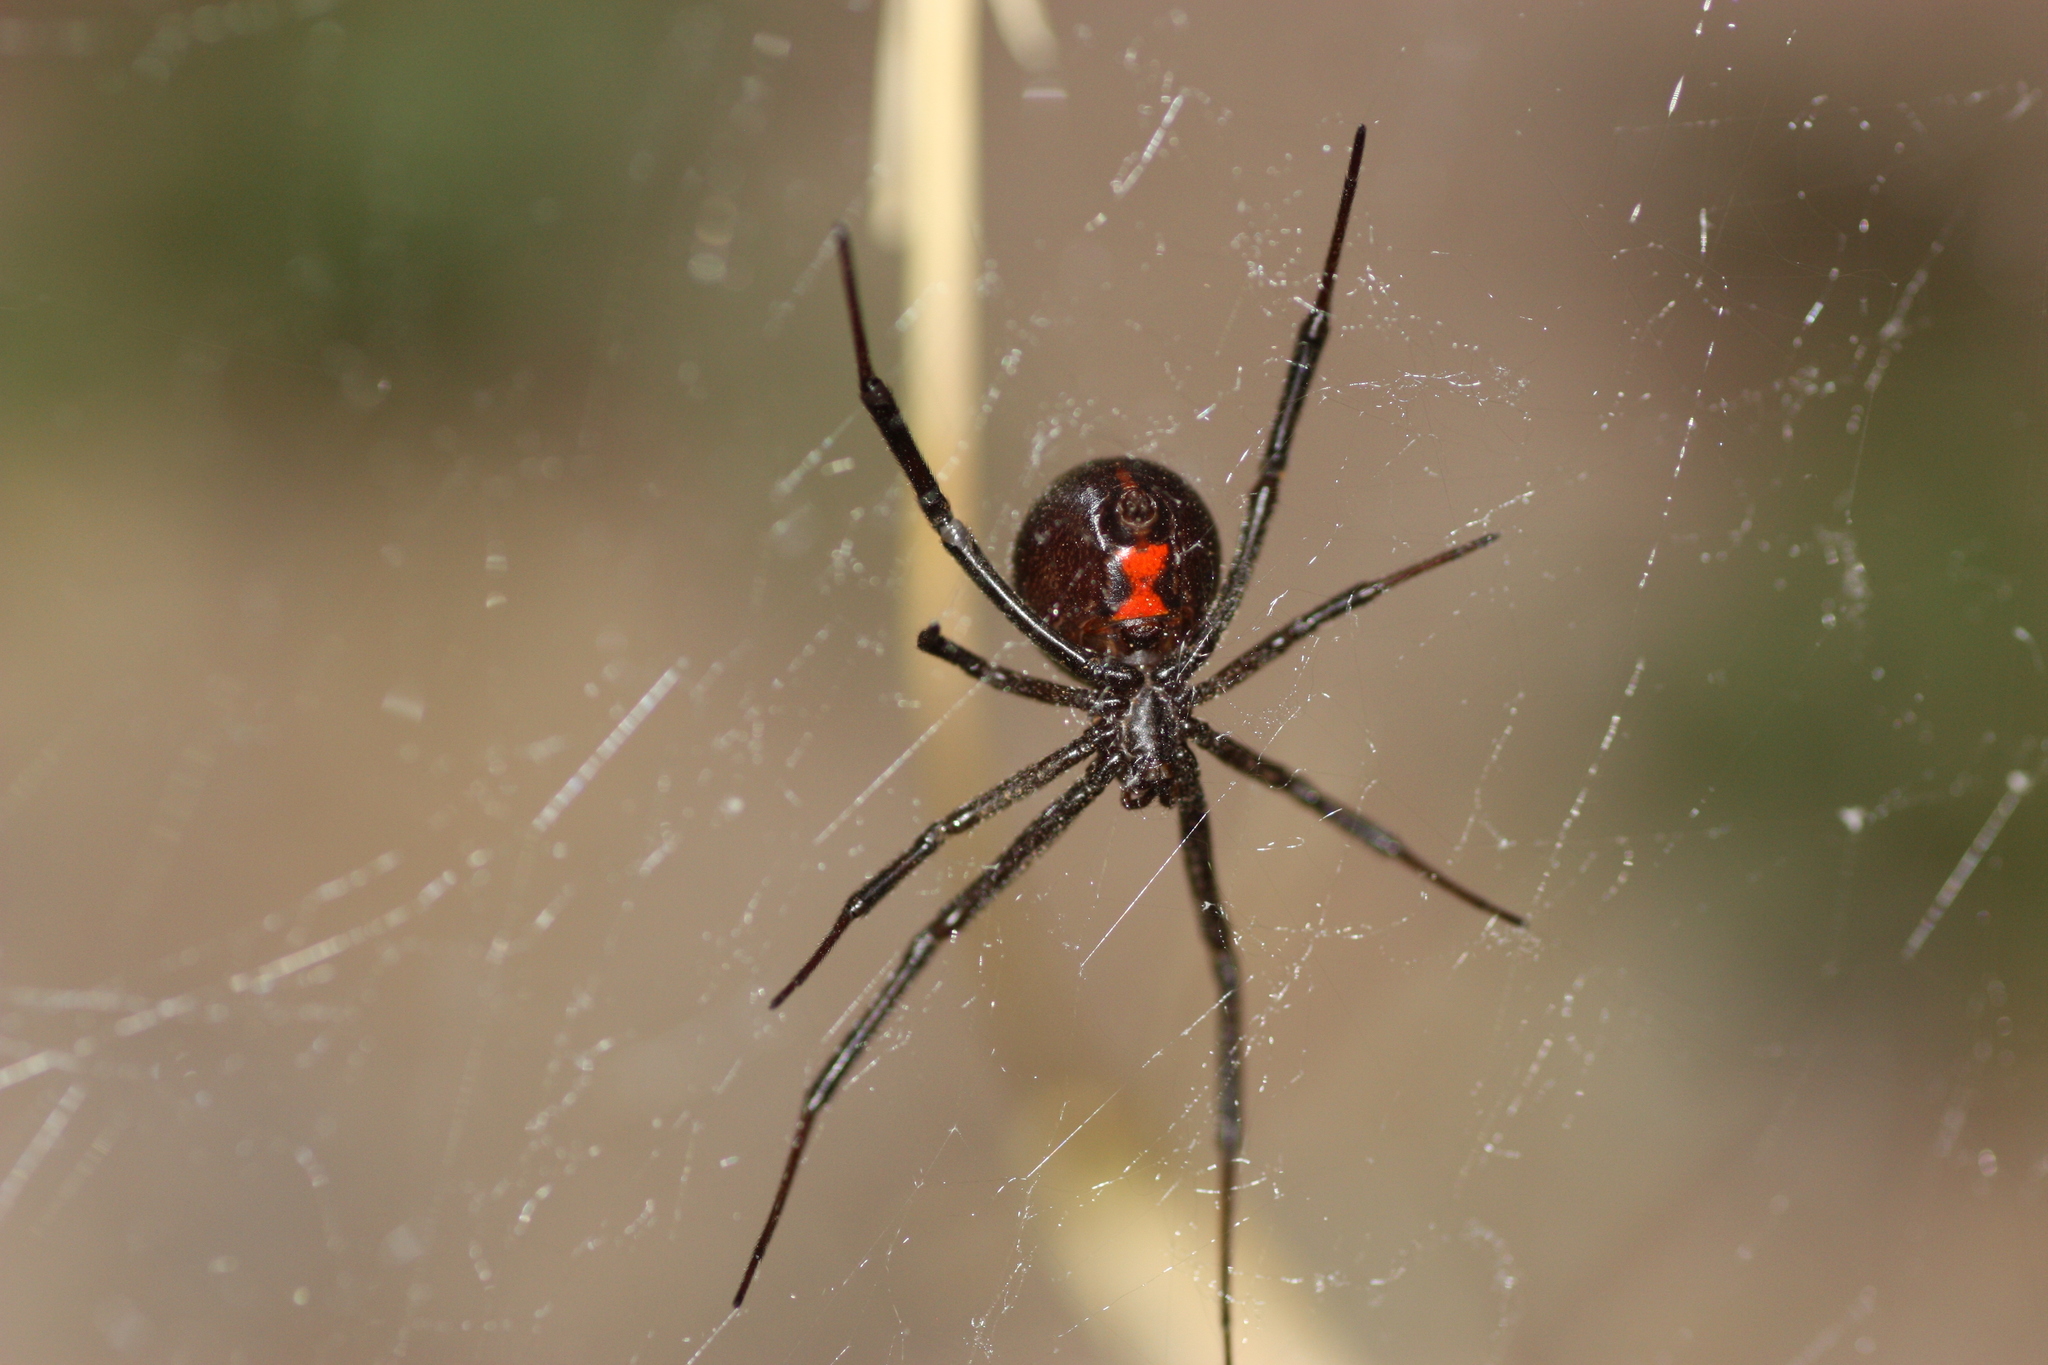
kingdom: Animalia
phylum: Arthropoda
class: Arachnida
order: Araneae
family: Theridiidae
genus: Latrodectus
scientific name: Latrodectus hesperus
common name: Western black widow
